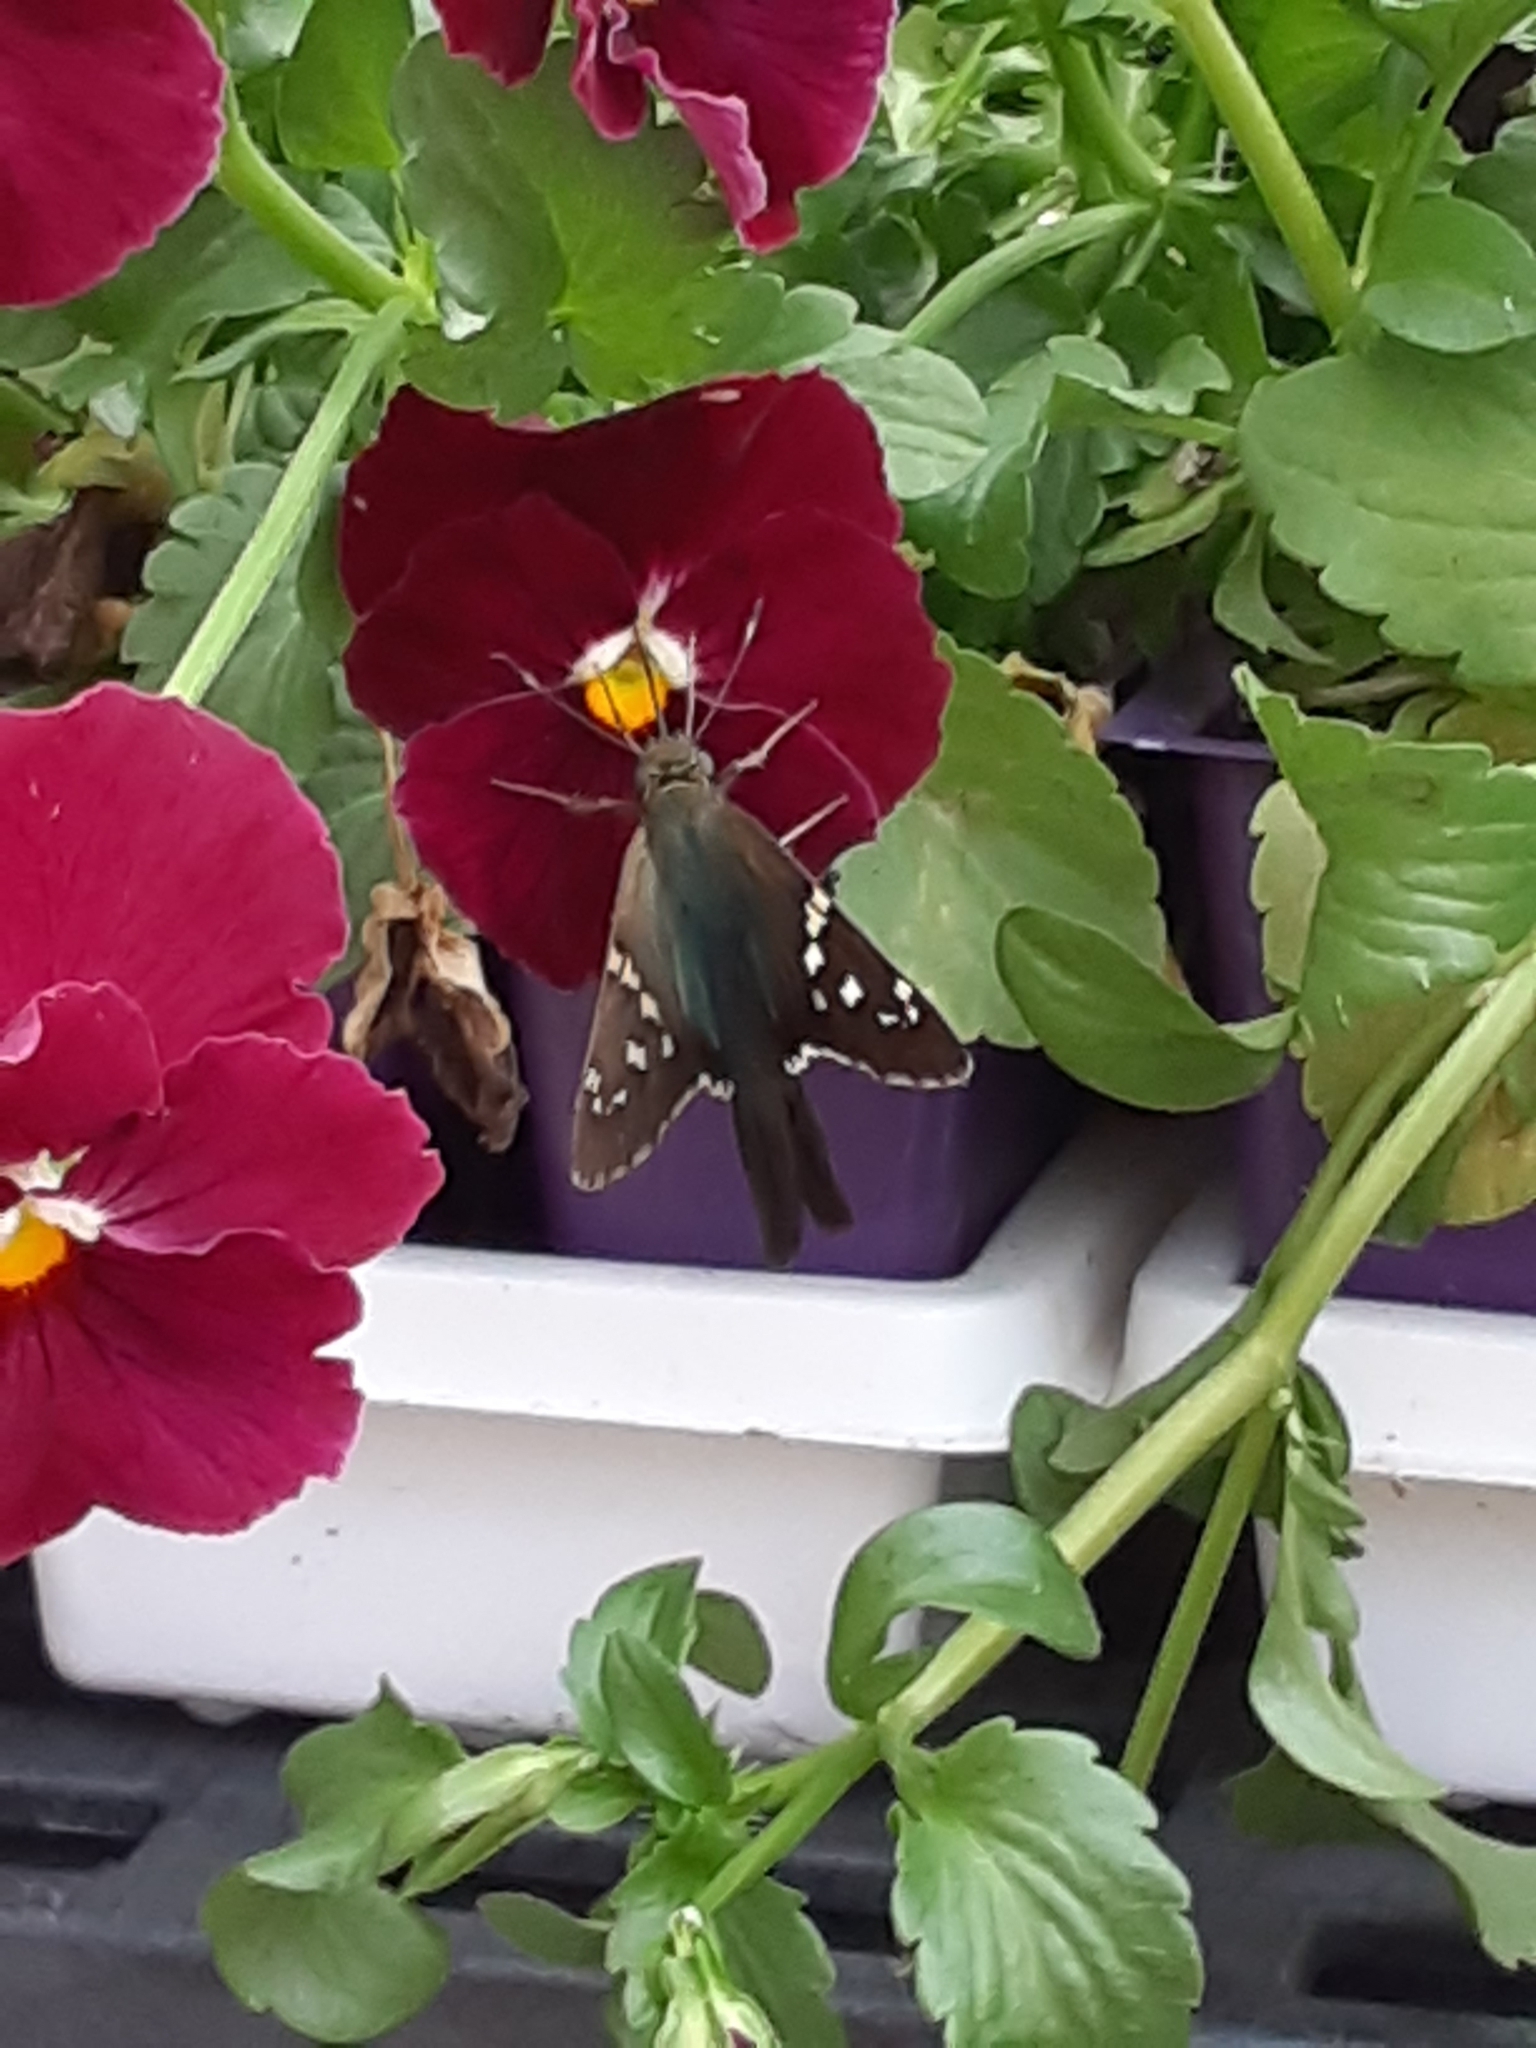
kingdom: Animalia
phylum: Arthropoda
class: Insecta
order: Lepidoptera
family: Hesperiidae
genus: Urbanus
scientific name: Urbanus proteus
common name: Long-tailed skipper
